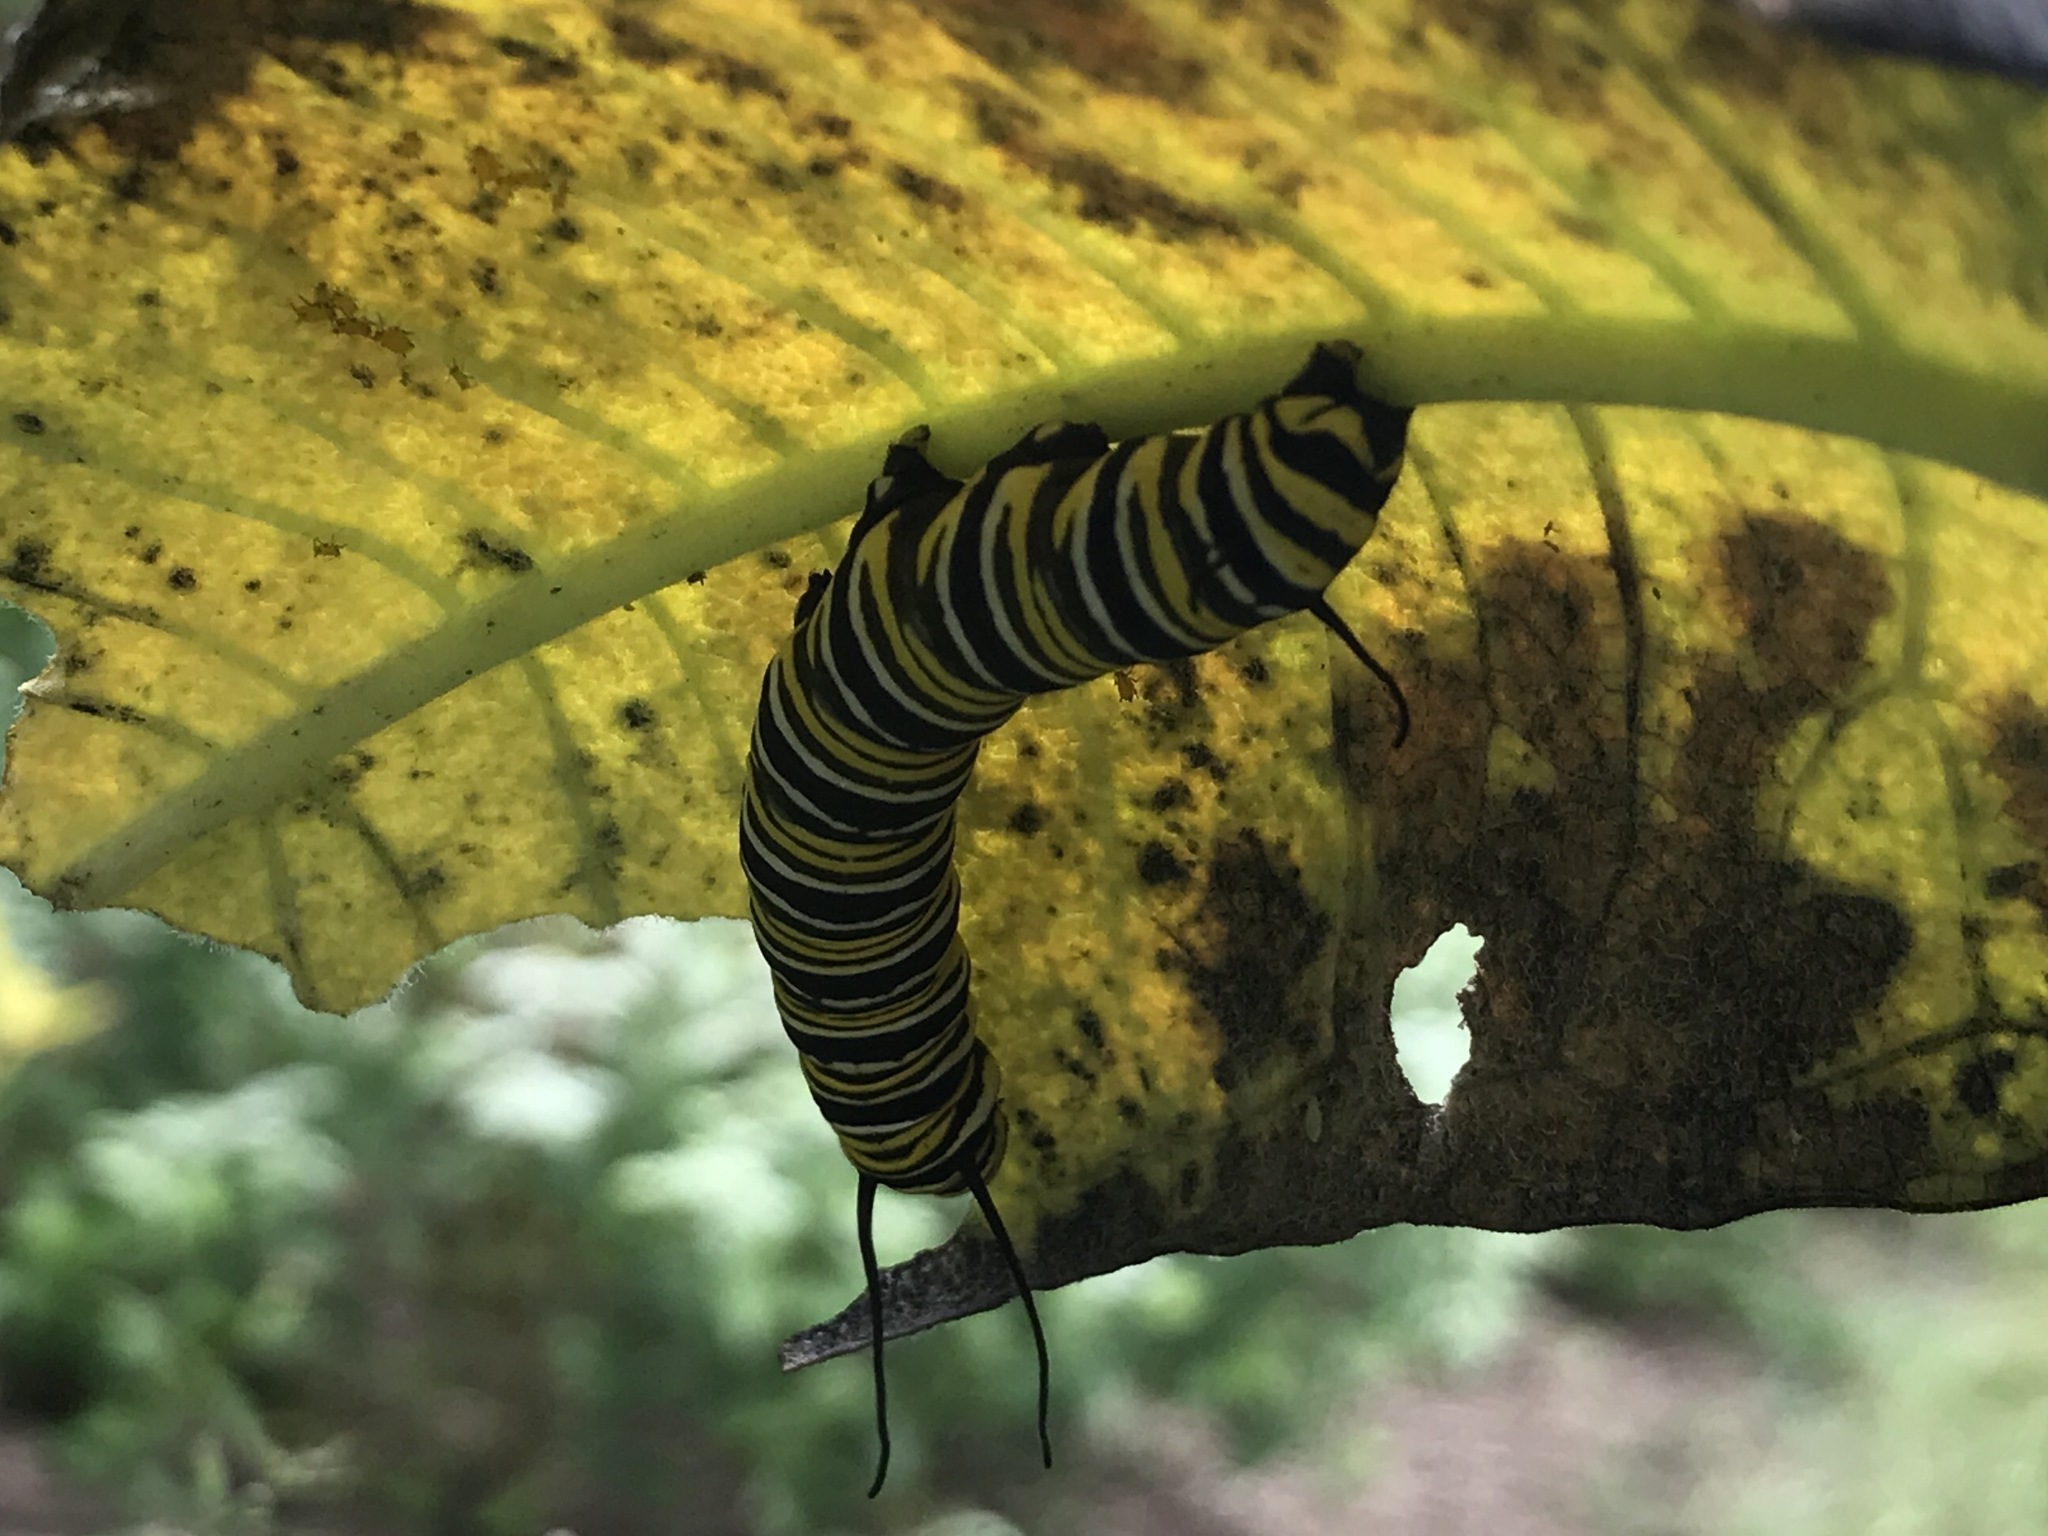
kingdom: Animalia
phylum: Arthropoda
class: Insecta
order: Lepidoptera
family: Nymphalidae
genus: Danaus
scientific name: Danaus plexippus
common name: Monarch
